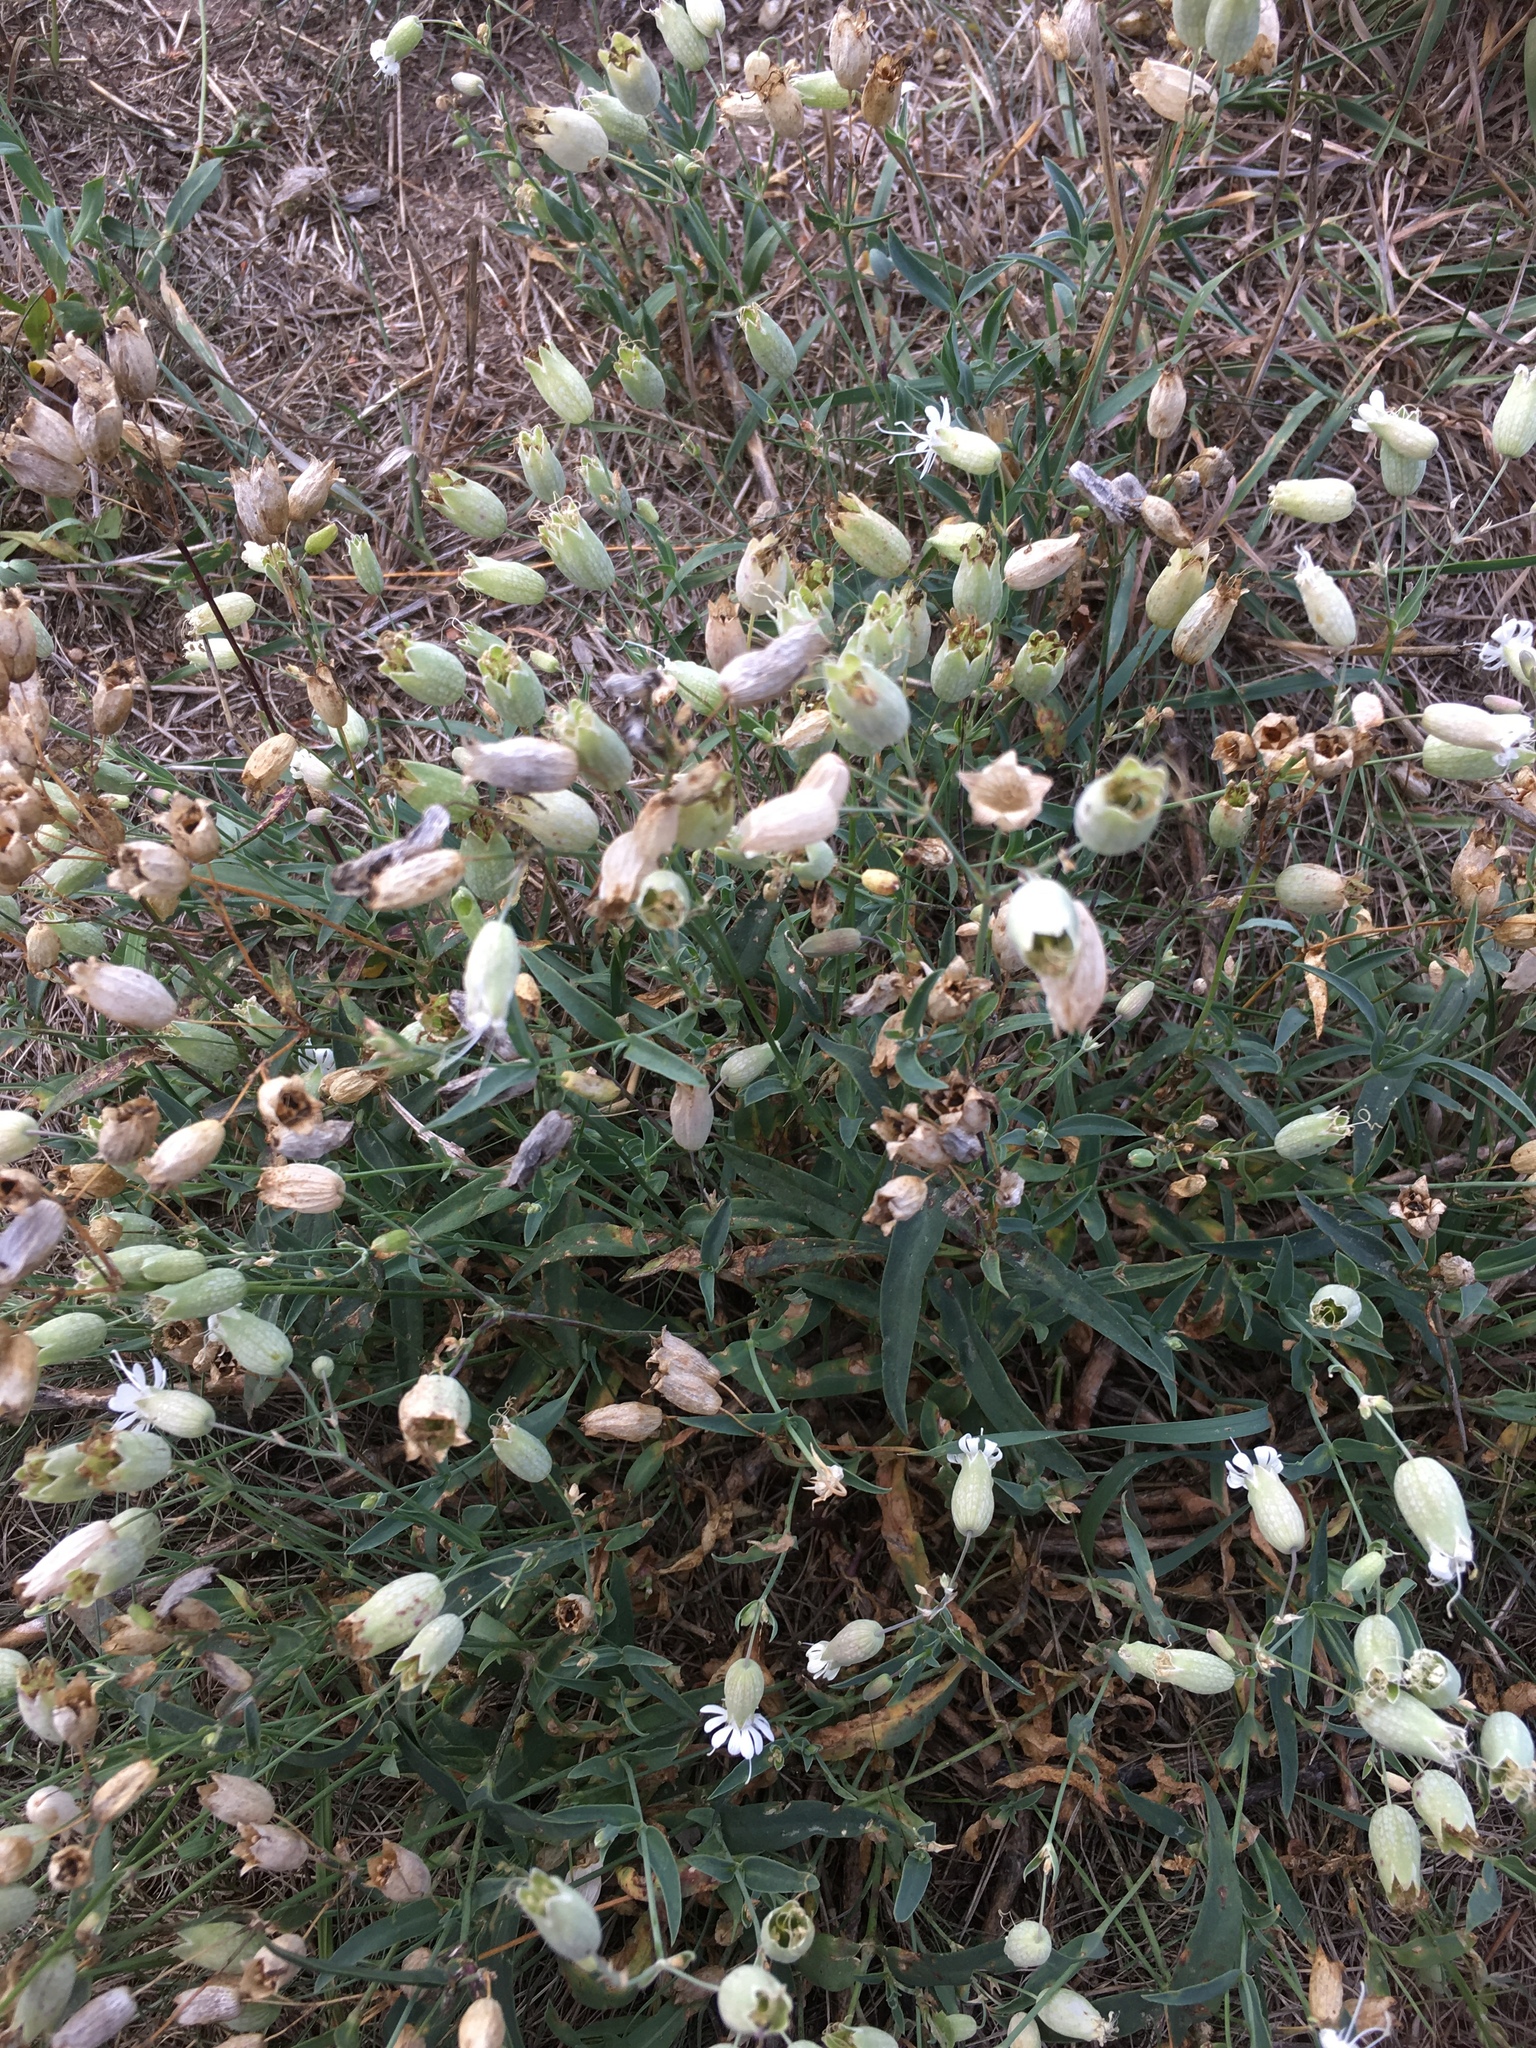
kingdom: Plantae
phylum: Tracheophyta
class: Magnoliopsida
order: Caryophyllales
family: Caryophyllaceae
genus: Silene
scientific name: Silene vulgaris
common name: Bladder campion
